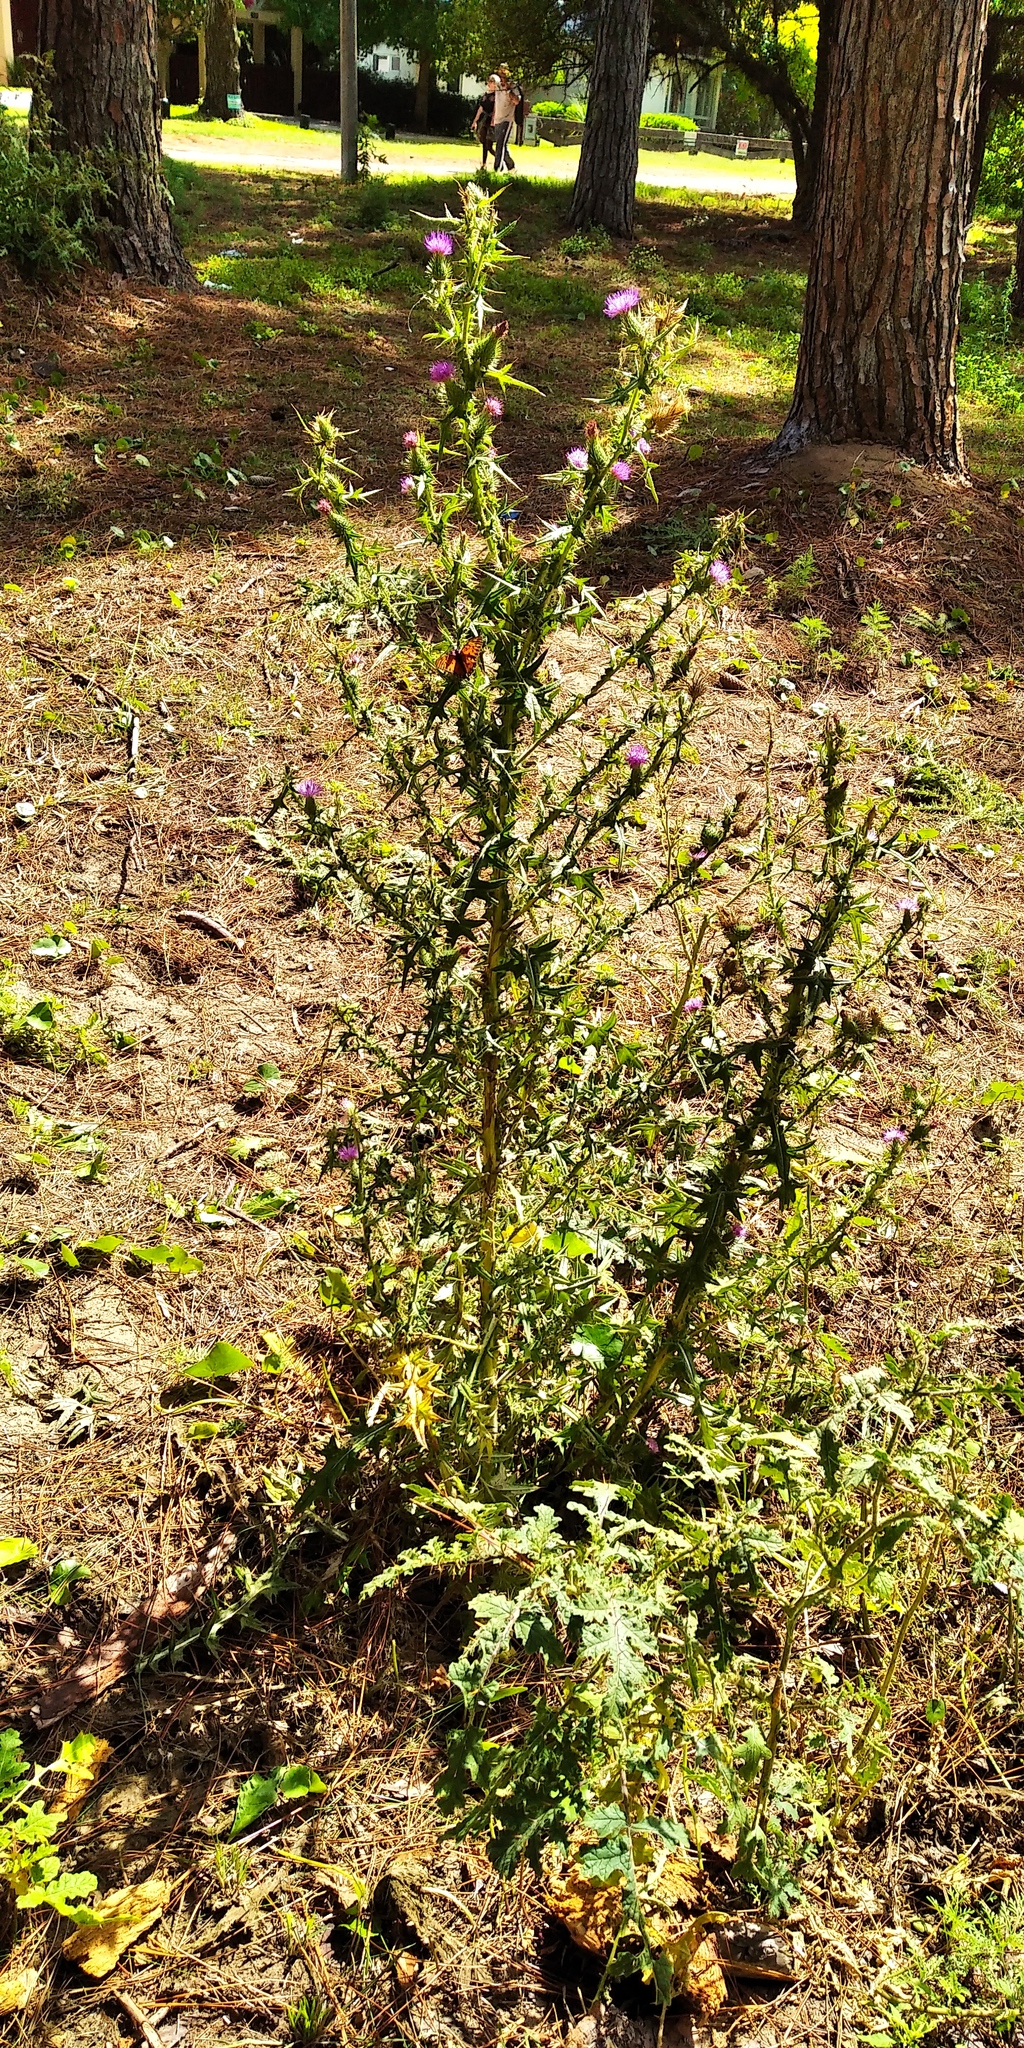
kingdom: Animalia
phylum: Arthropoda
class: Insecta
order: Lepidoptera
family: Nymphalidae
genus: Dione
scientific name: Dione vanillae
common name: Gulf fritillary
